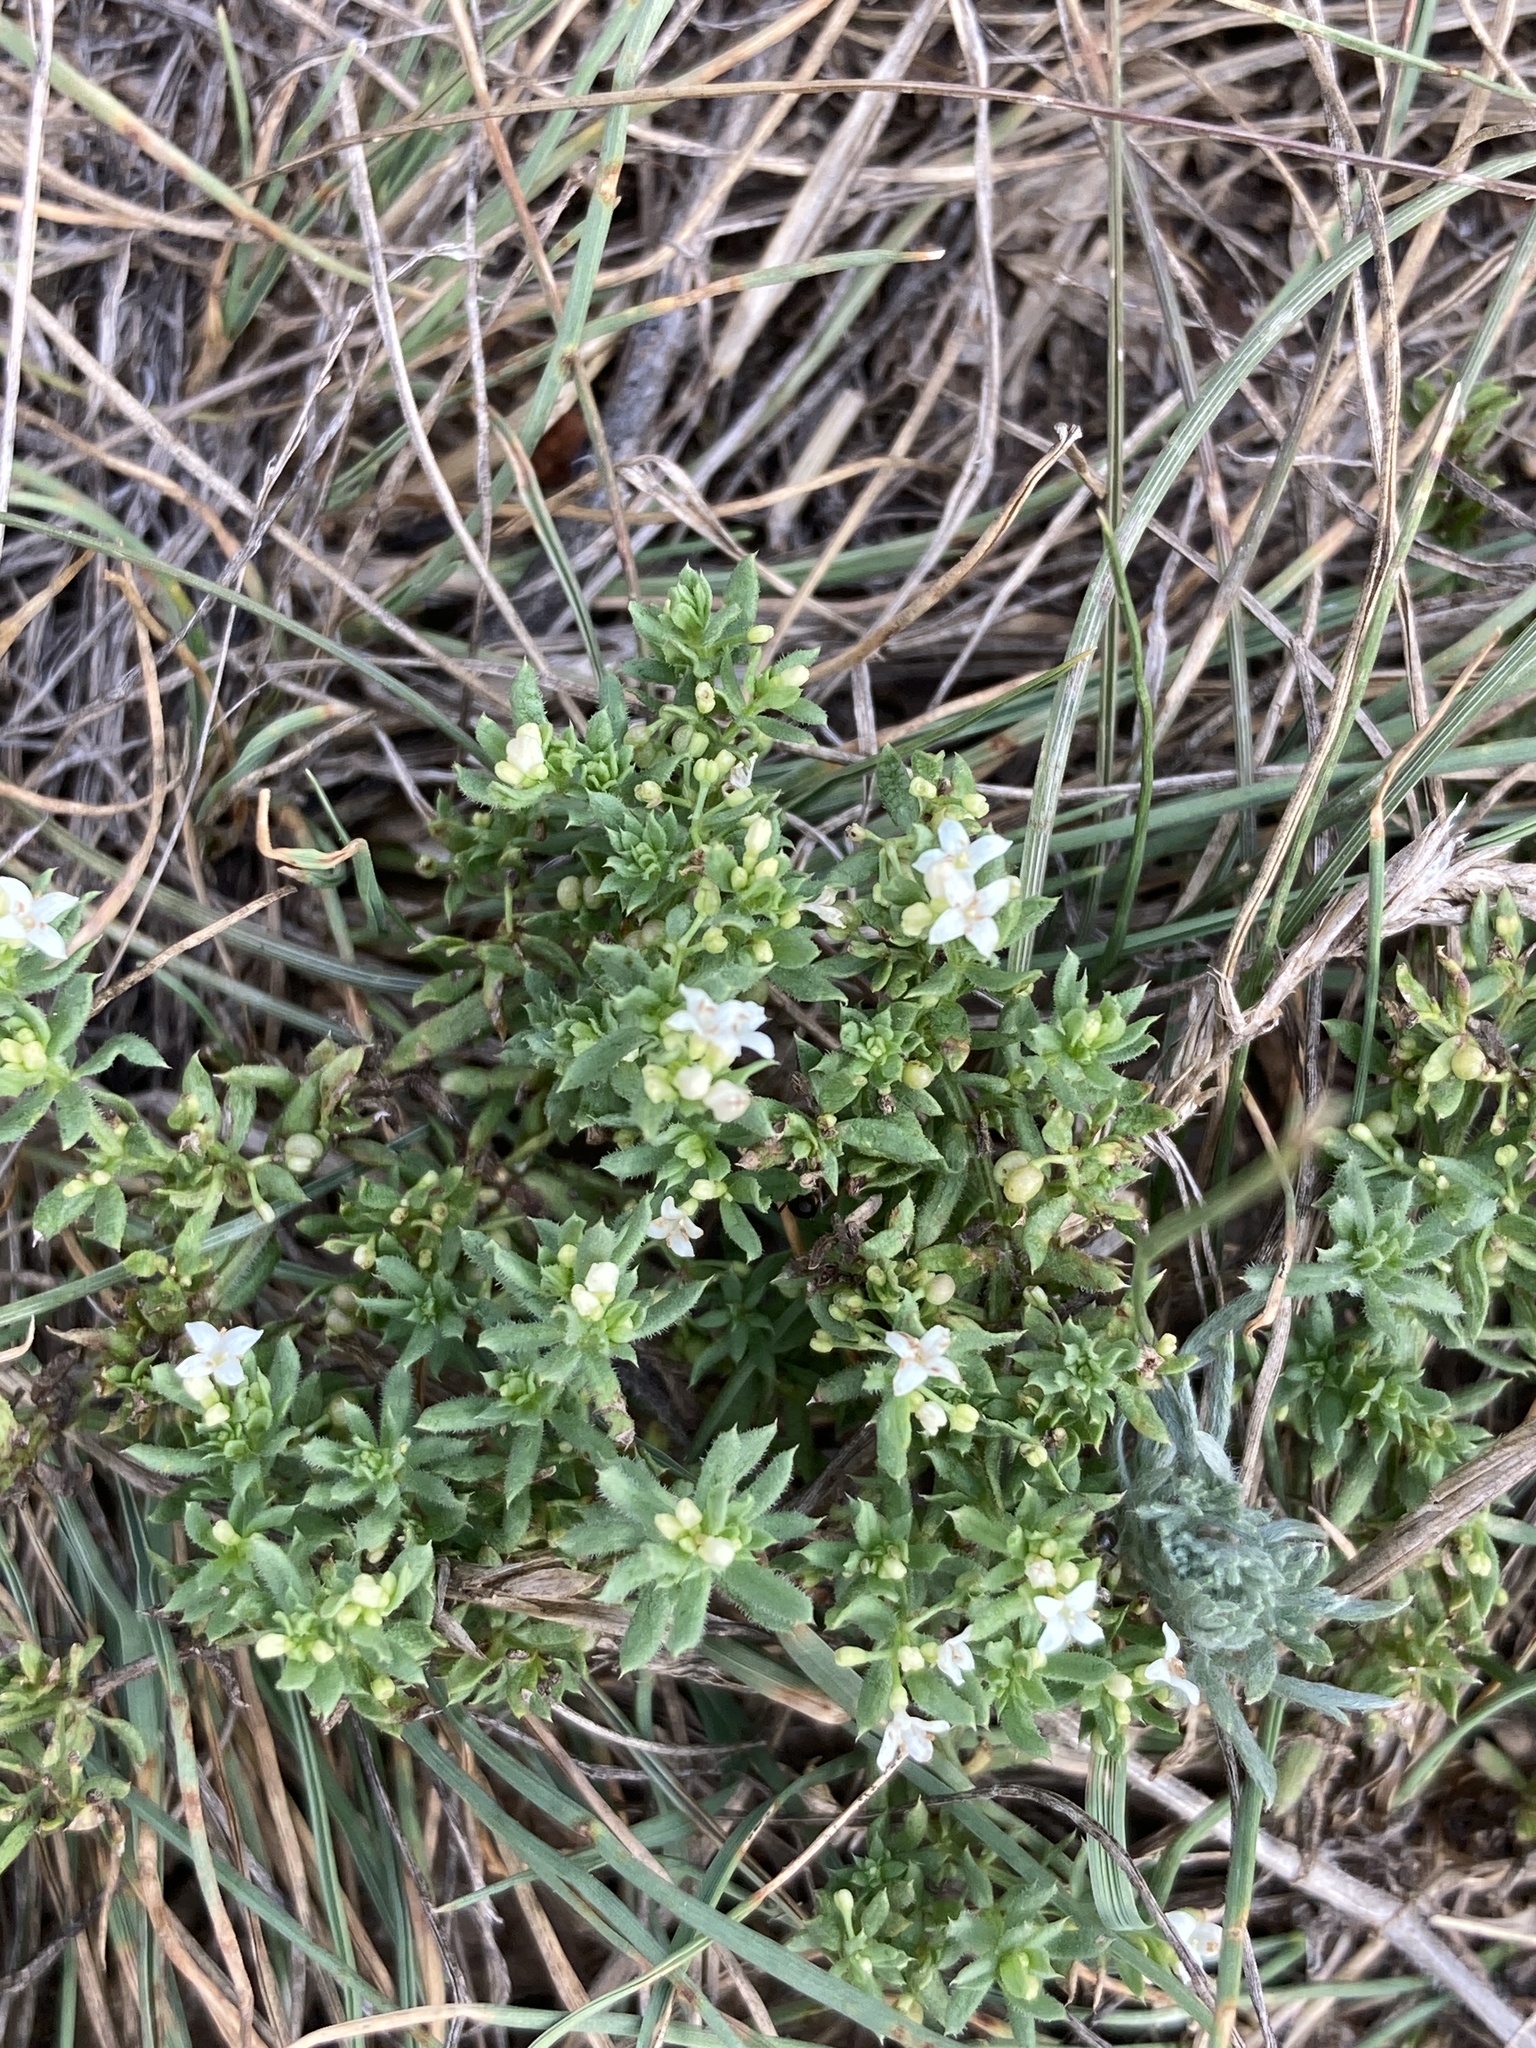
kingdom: Plantae
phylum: Tracheophyta
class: Magnoliopsida
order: Gentianales
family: Rubiaceae
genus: Galium
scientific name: Galium humifusum
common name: Spreading bedstraw
